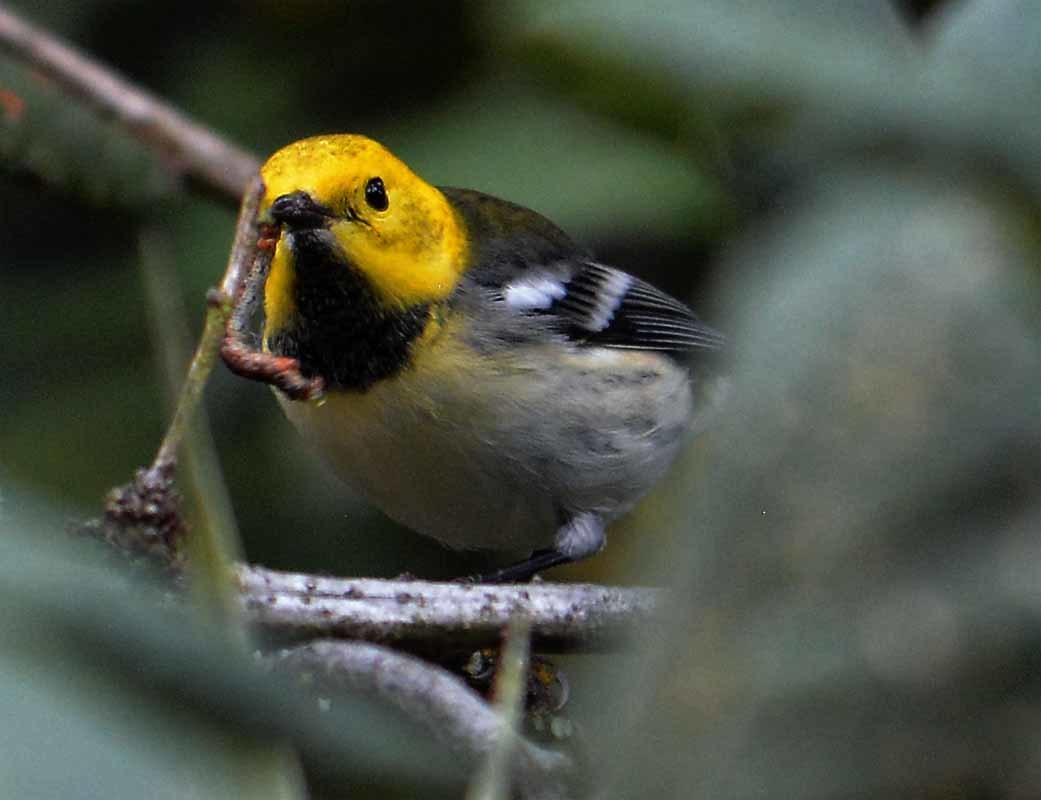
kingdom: Animalia
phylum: Chordata
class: Aves
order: Passeriformes
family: Parulidae
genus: Setophaga
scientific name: Setophaga
